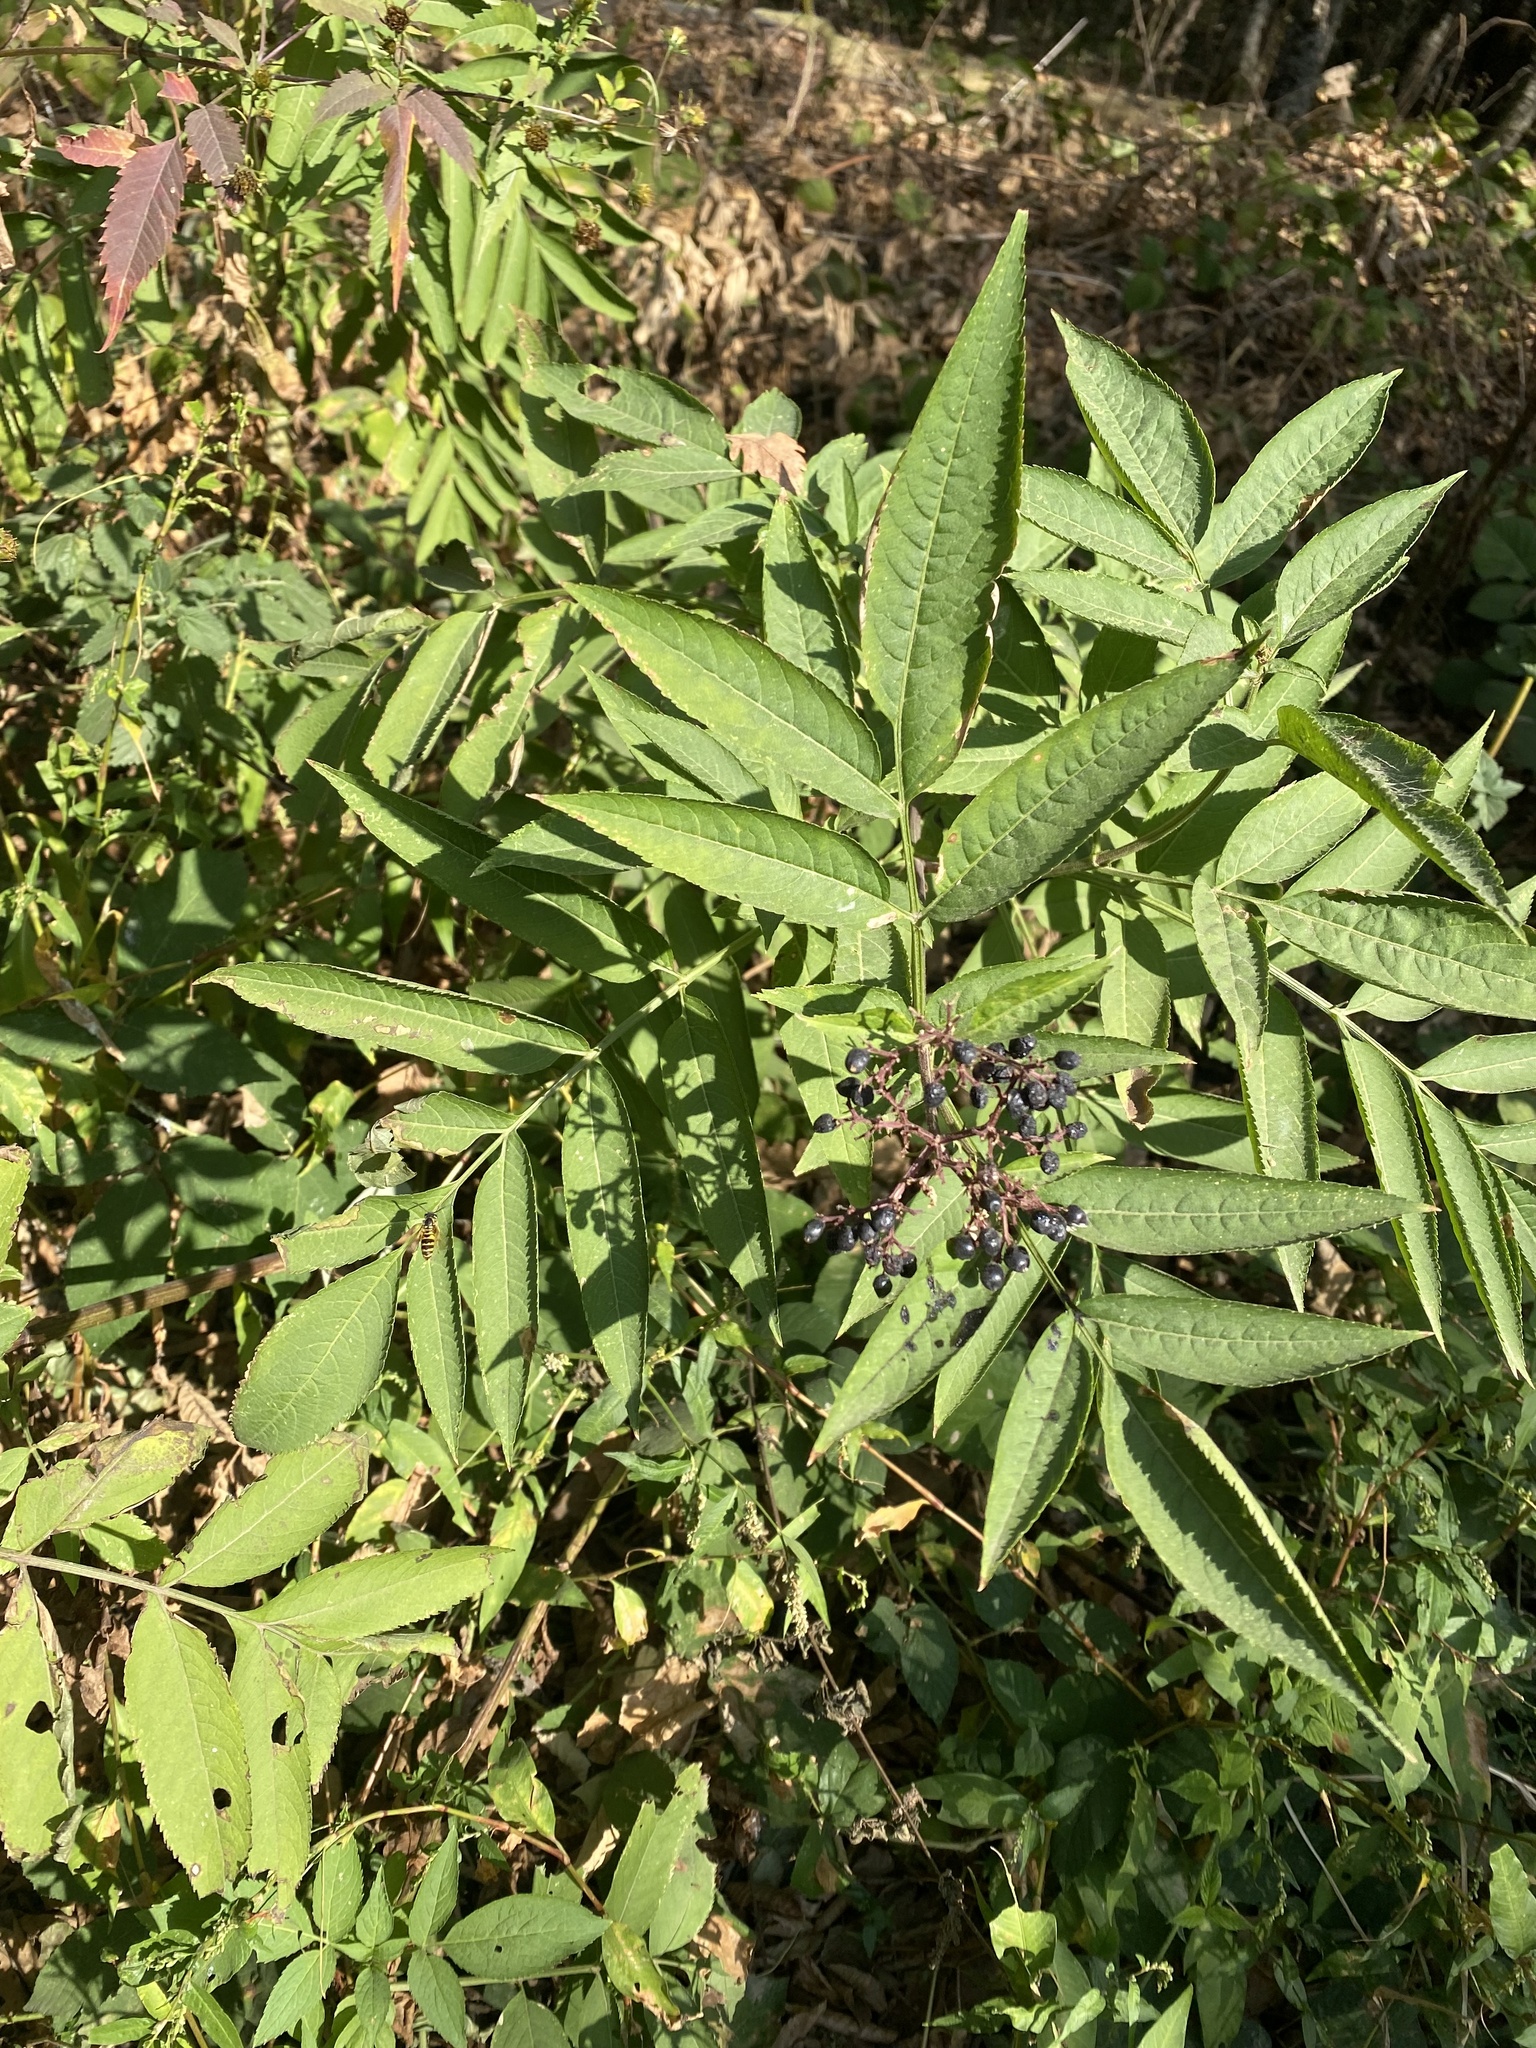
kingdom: Plantae
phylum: Tracheophyta
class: Magnoliopsida
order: Dipsacales
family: Viburnaceae
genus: Sambucus
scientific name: Sambucus ebulus
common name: Dwarf elder
